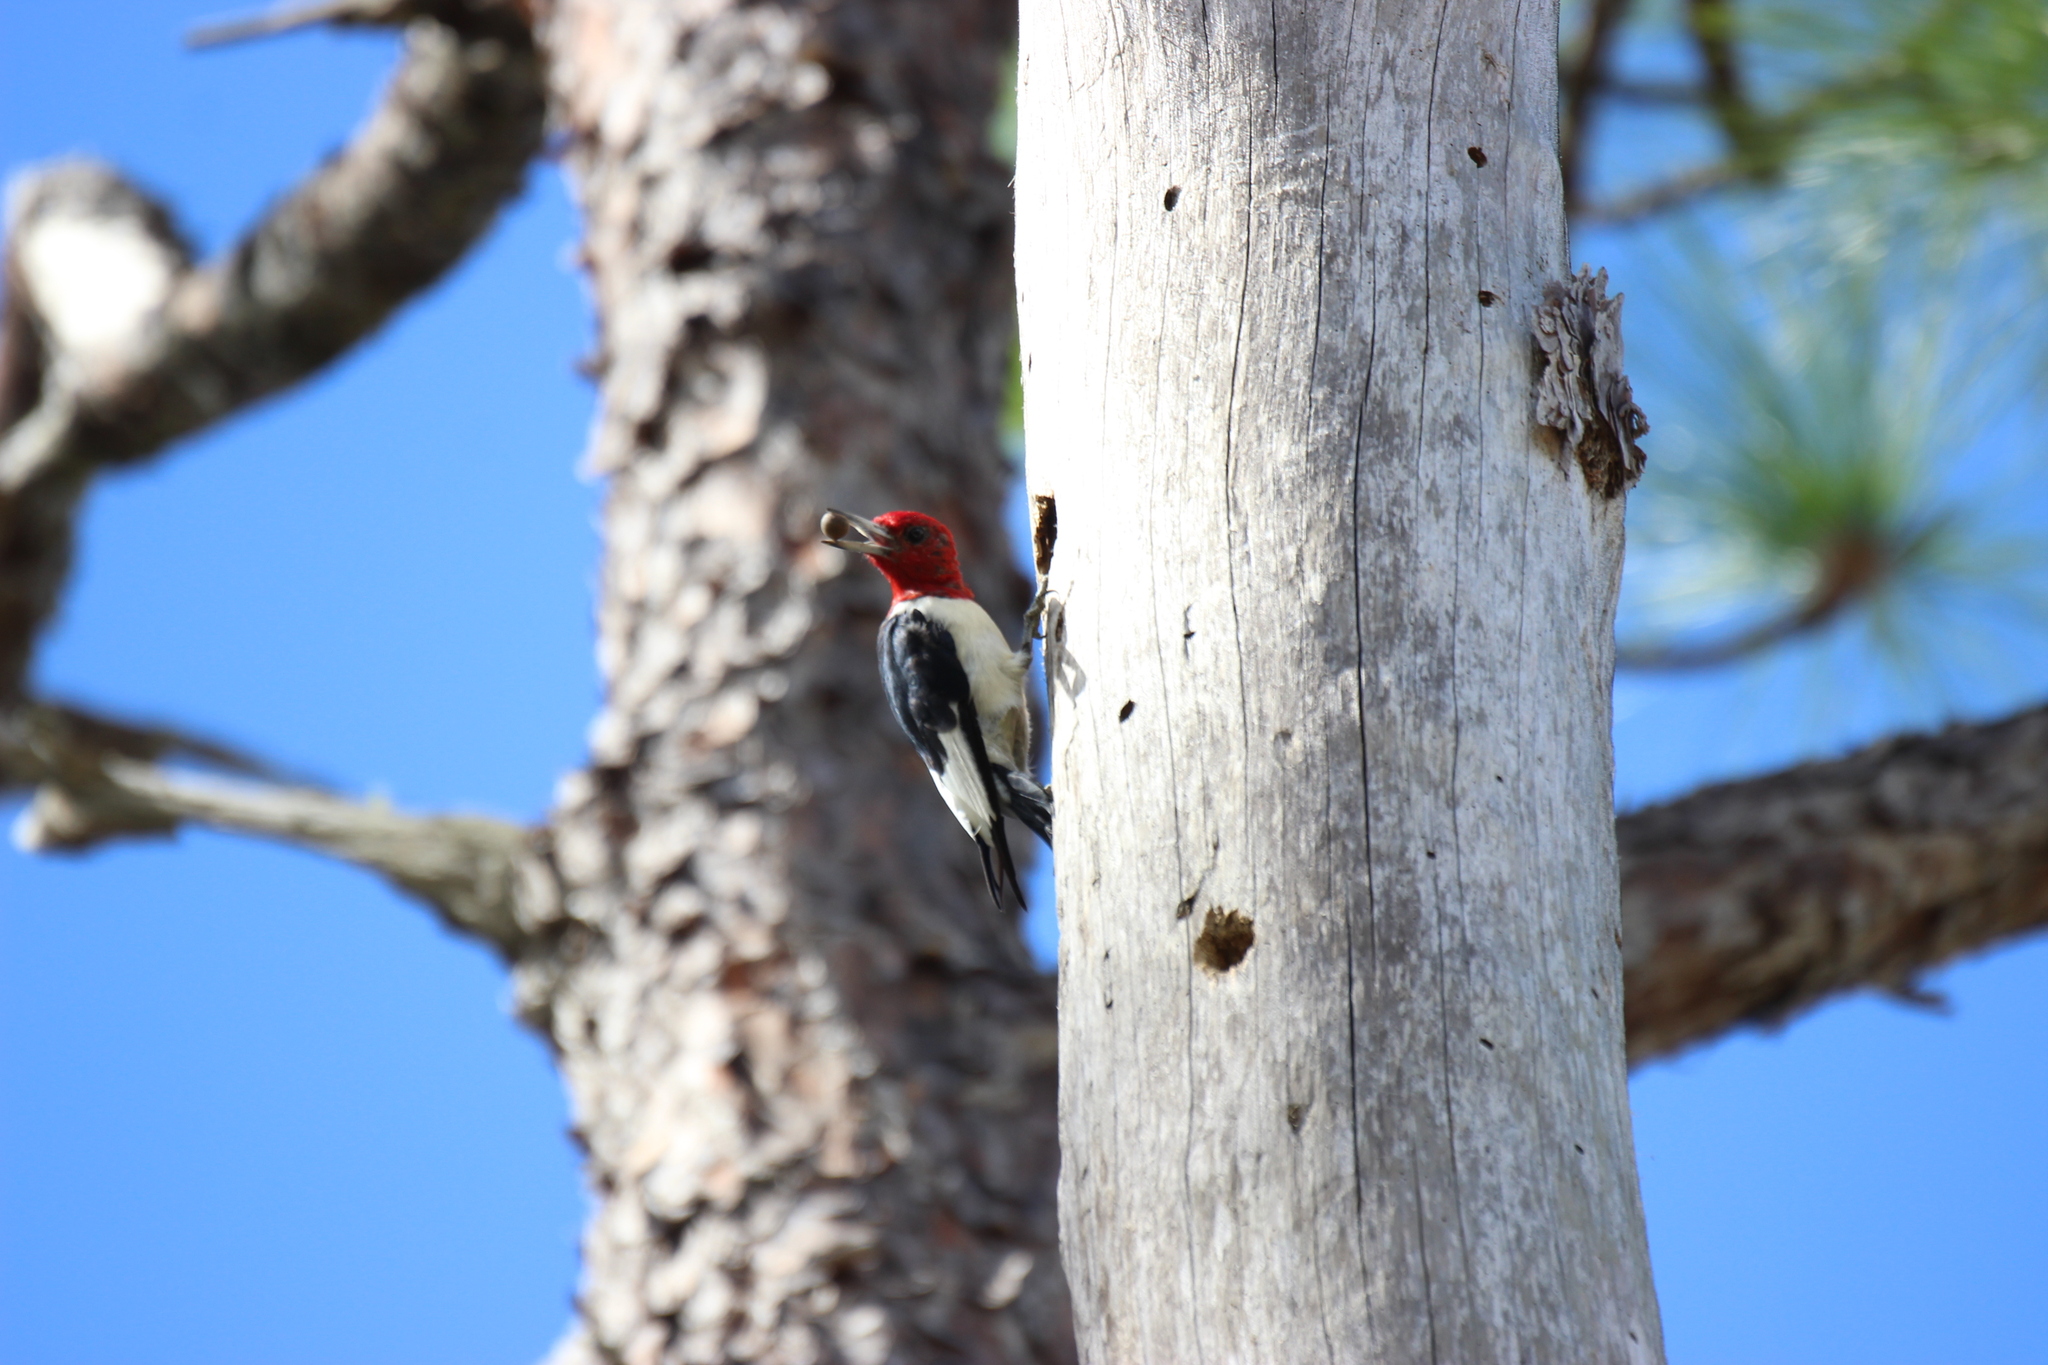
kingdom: Animalia
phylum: Chordata
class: Aves
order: Piciformes
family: Picidae
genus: Melanerpes
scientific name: Melanerpes erythrocephalus
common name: Red-headed woodpecker
